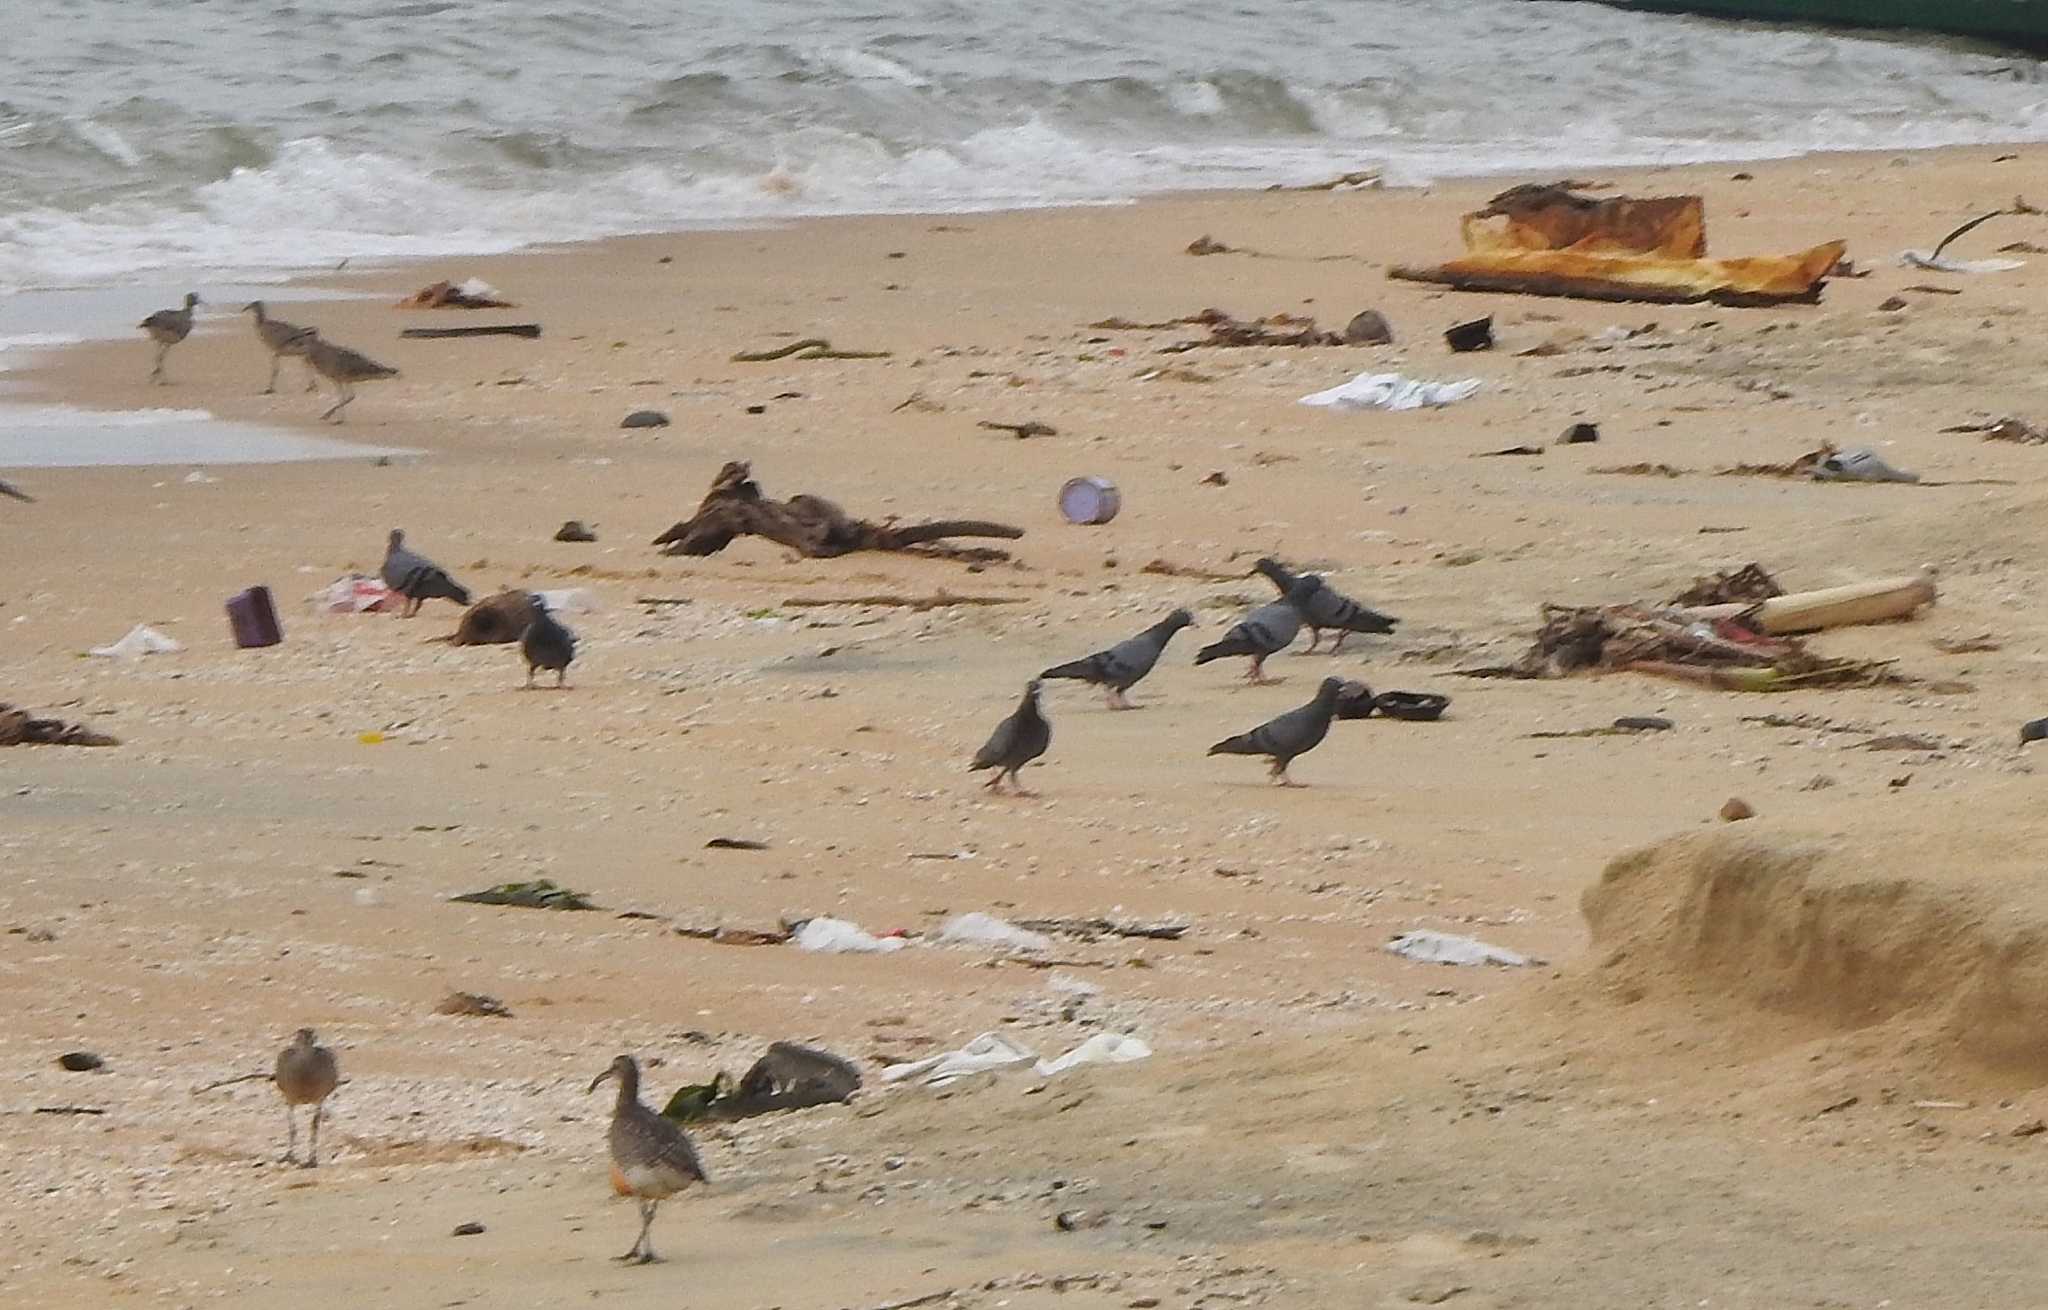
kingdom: Animalia
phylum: Chordata
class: Aves
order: Columbiformes
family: Columbidae
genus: Columba
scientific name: Columba livia
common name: Rock pigeon
